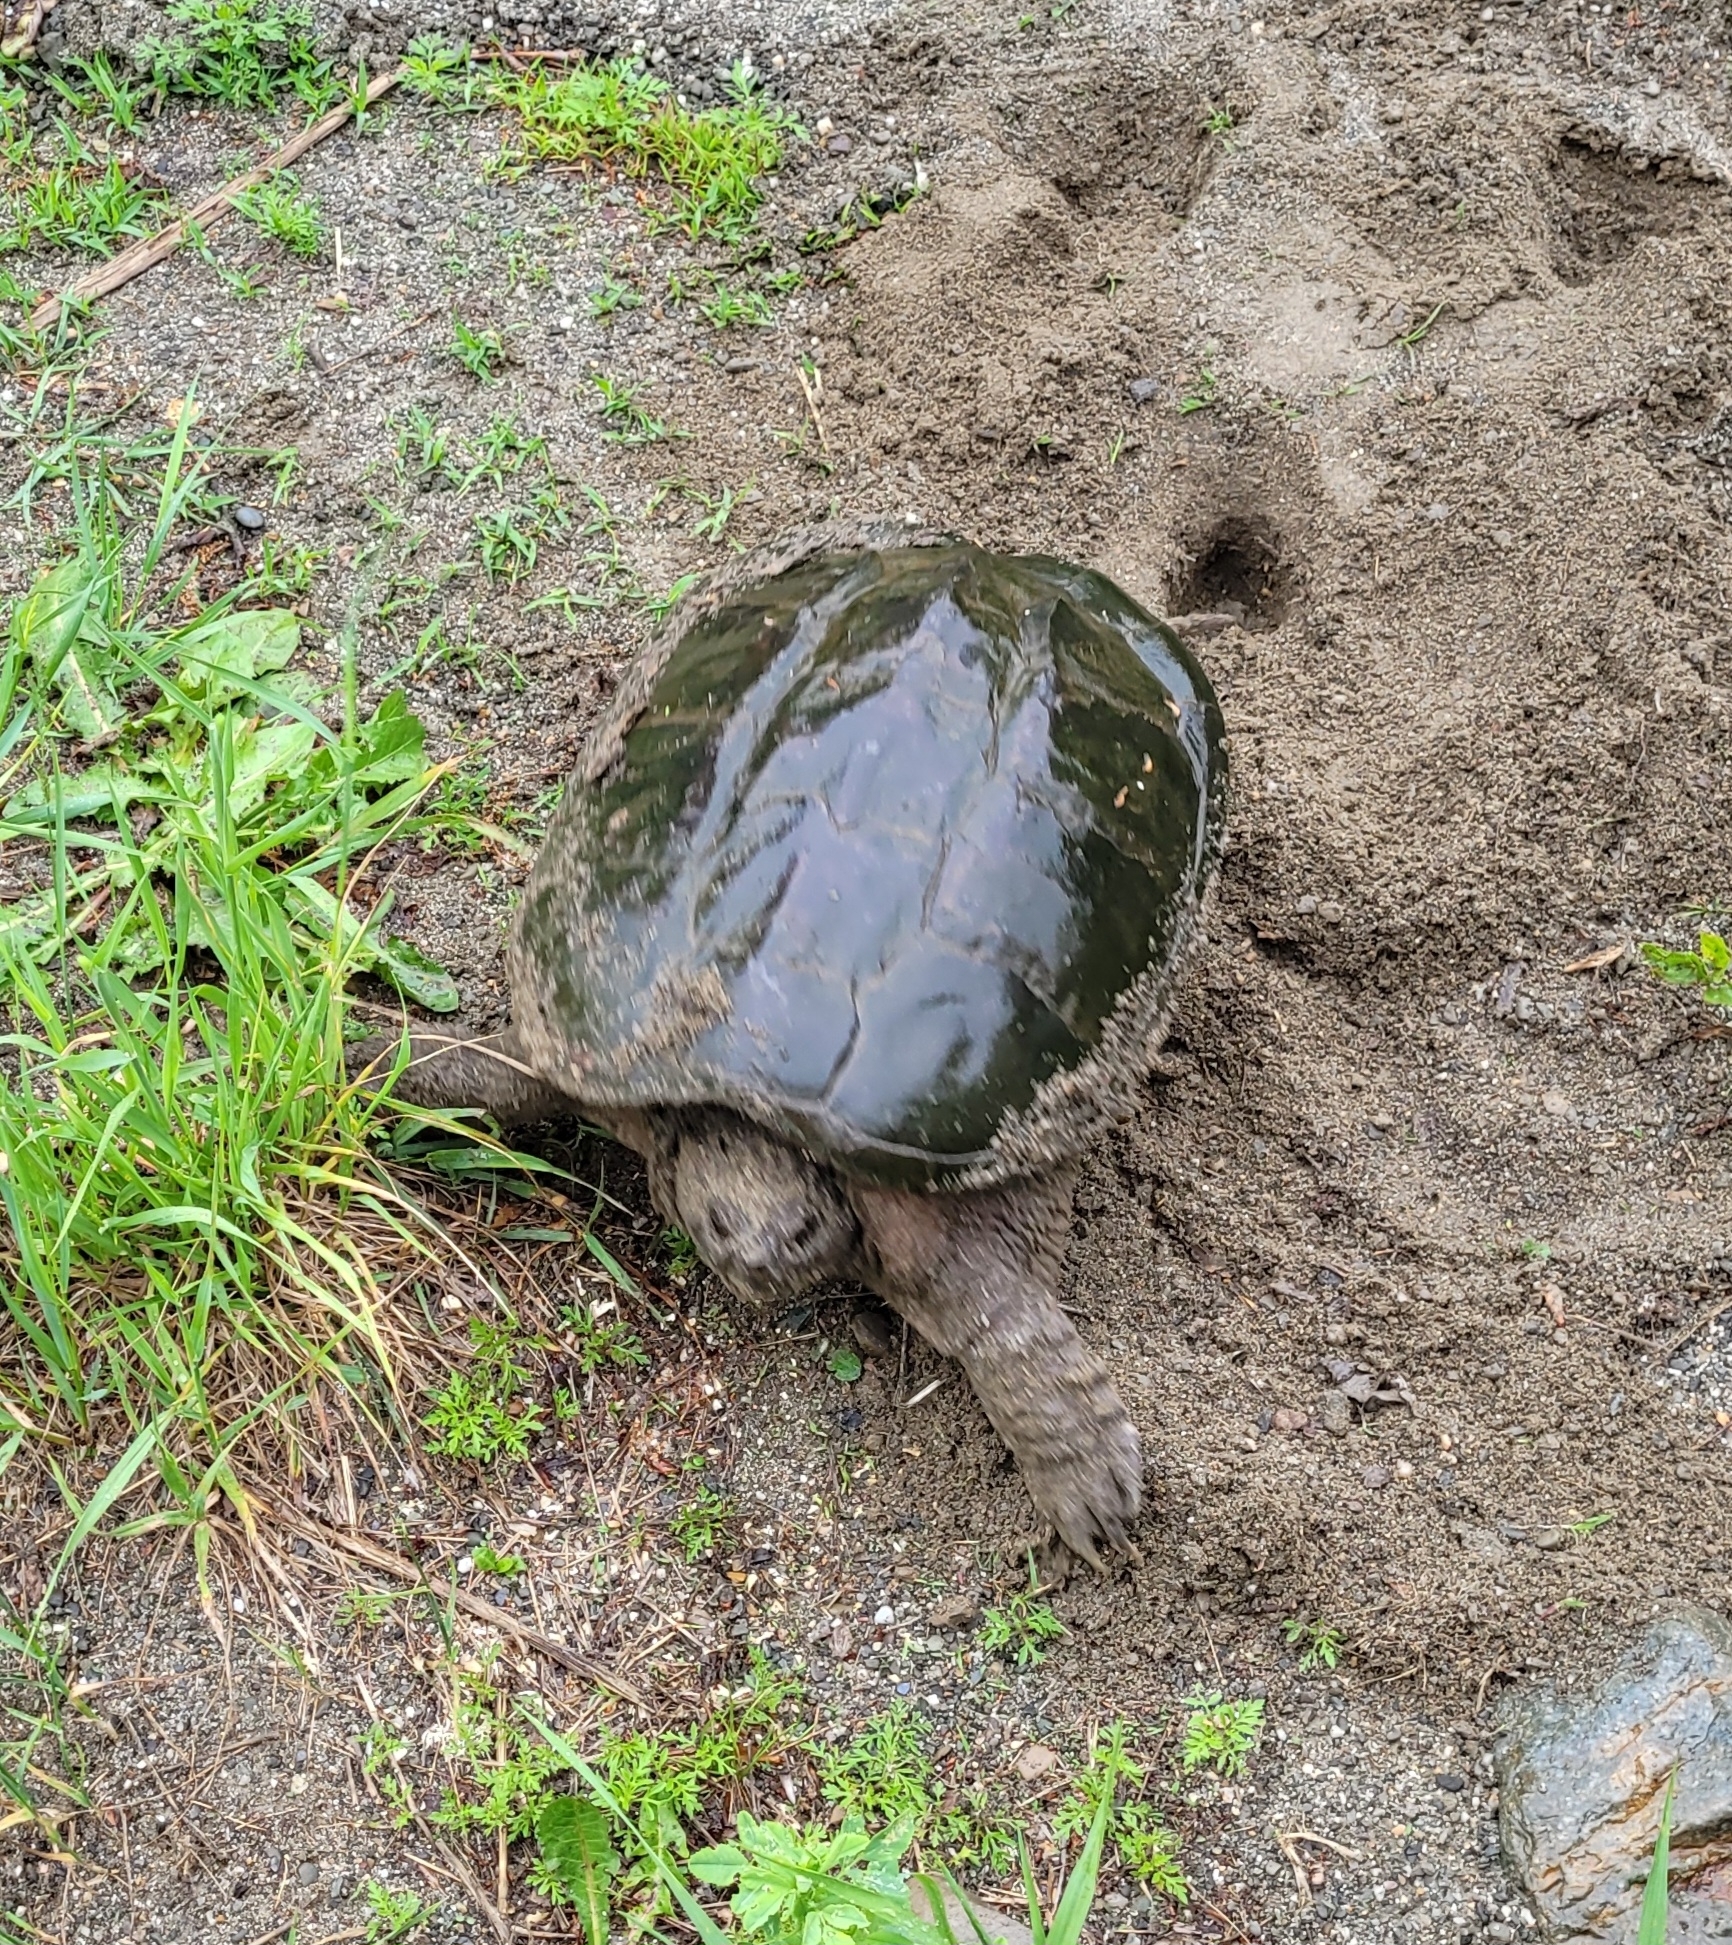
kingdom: Animalia
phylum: Chordata
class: Testudines
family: Chelydridae
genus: Chelydra
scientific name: Chelydra serpentina
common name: Common snapping turtle
